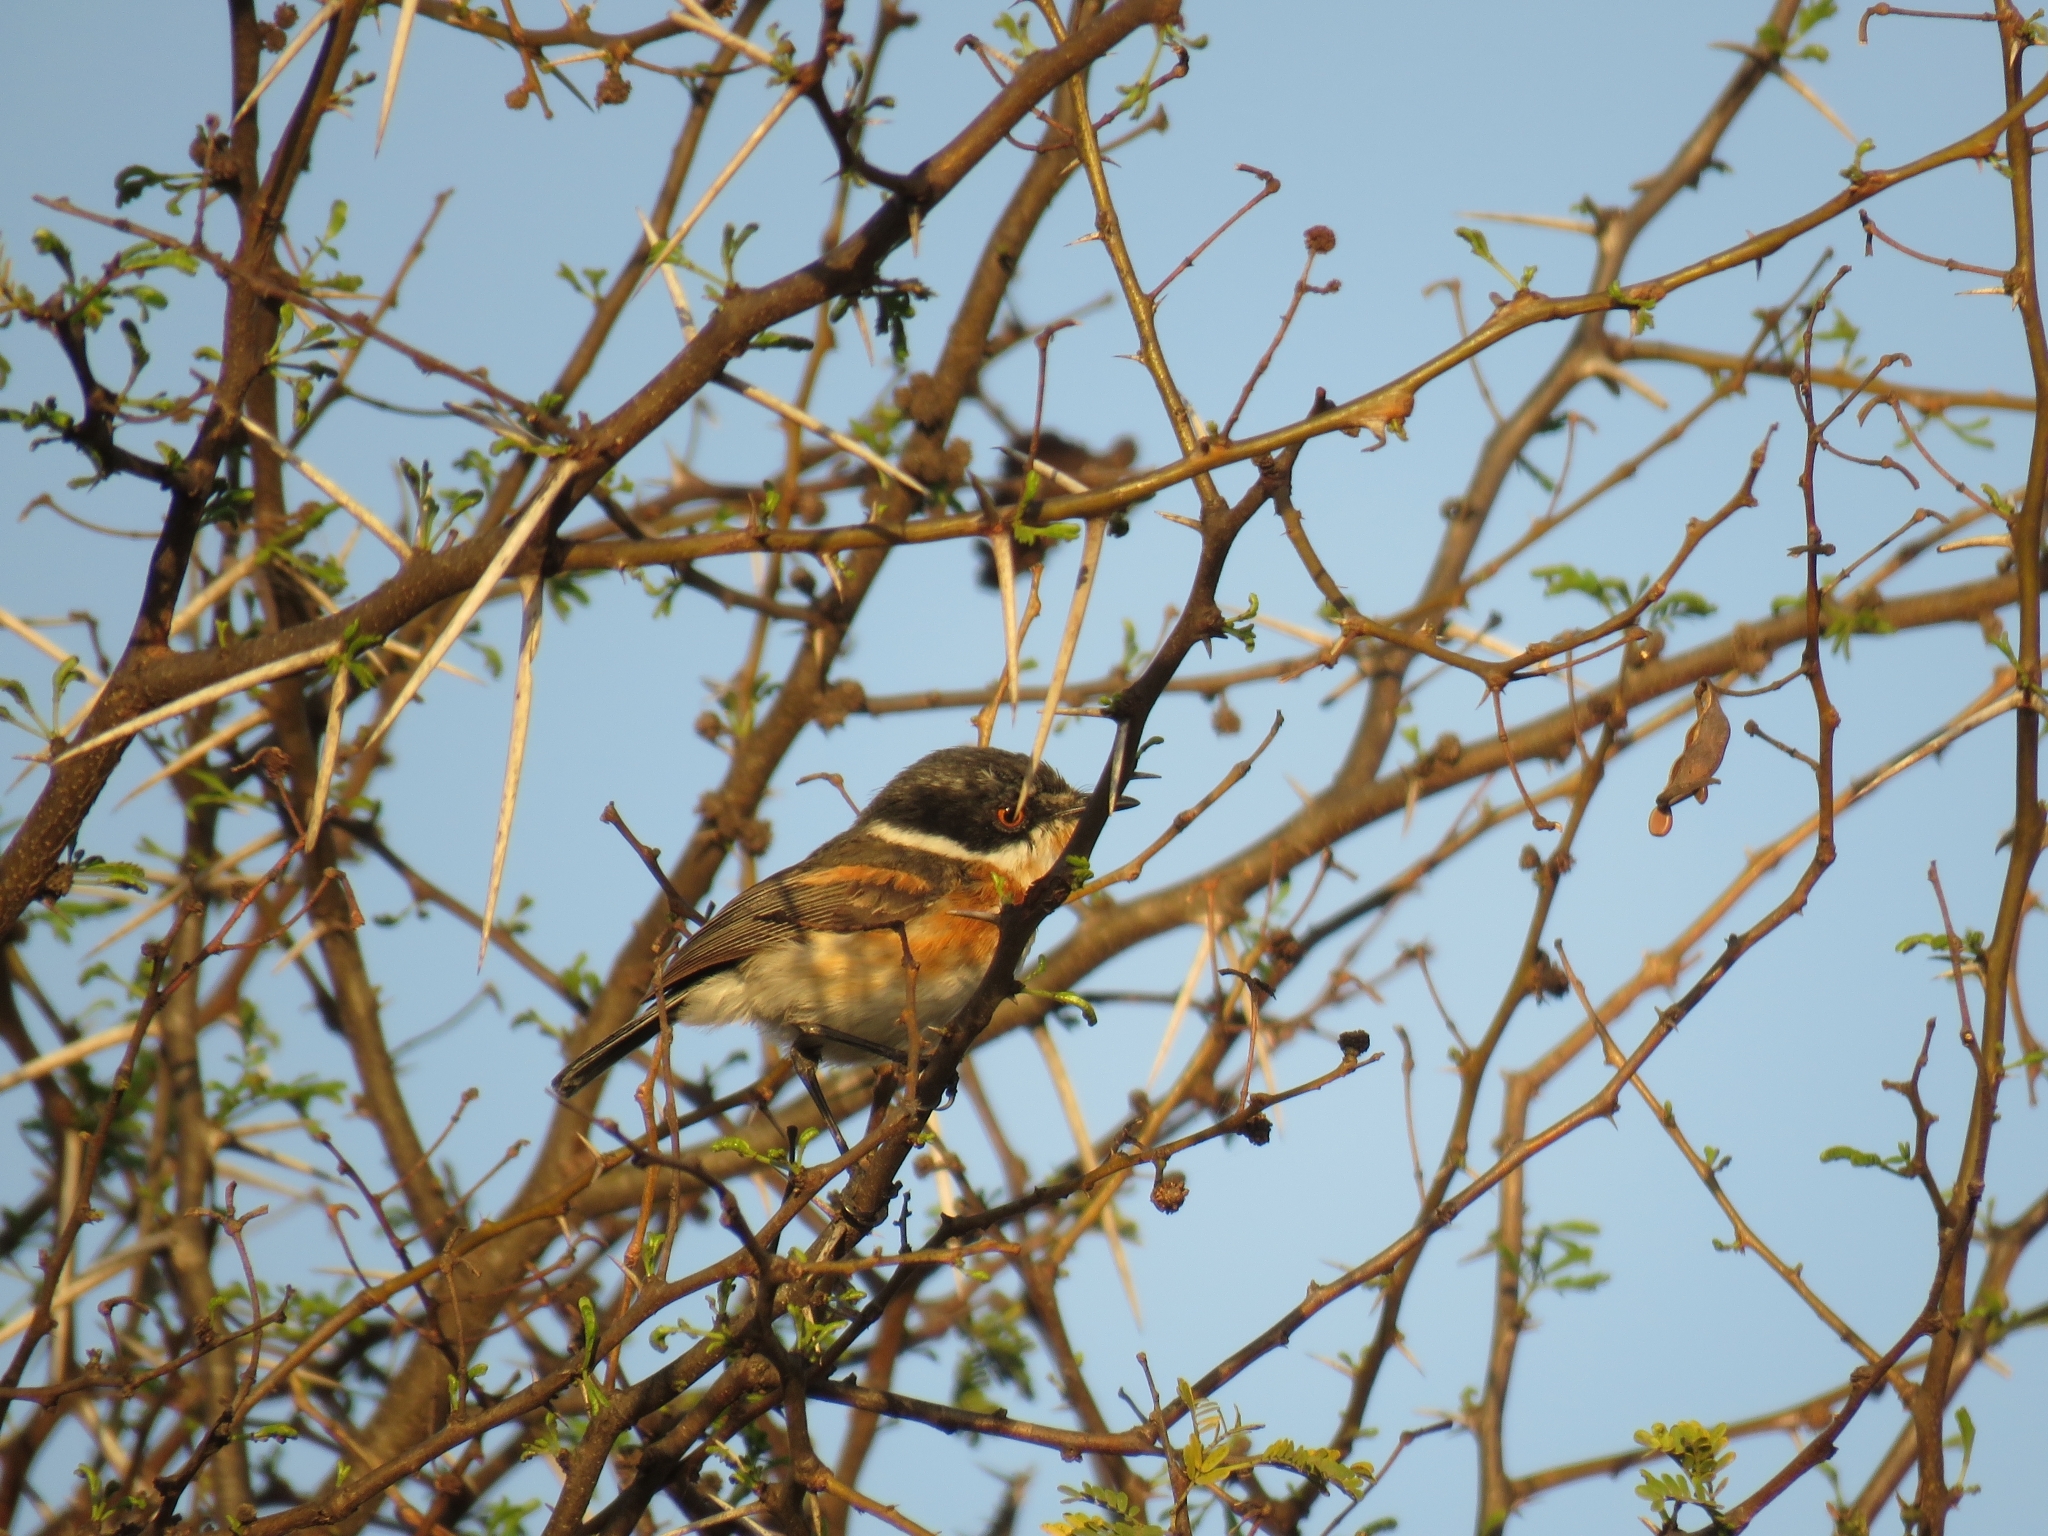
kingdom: Animalia
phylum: Chordata
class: Aves
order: Passeriformes
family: Platysteiridae
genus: Batis
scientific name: Batis capensis
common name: Cape batis
